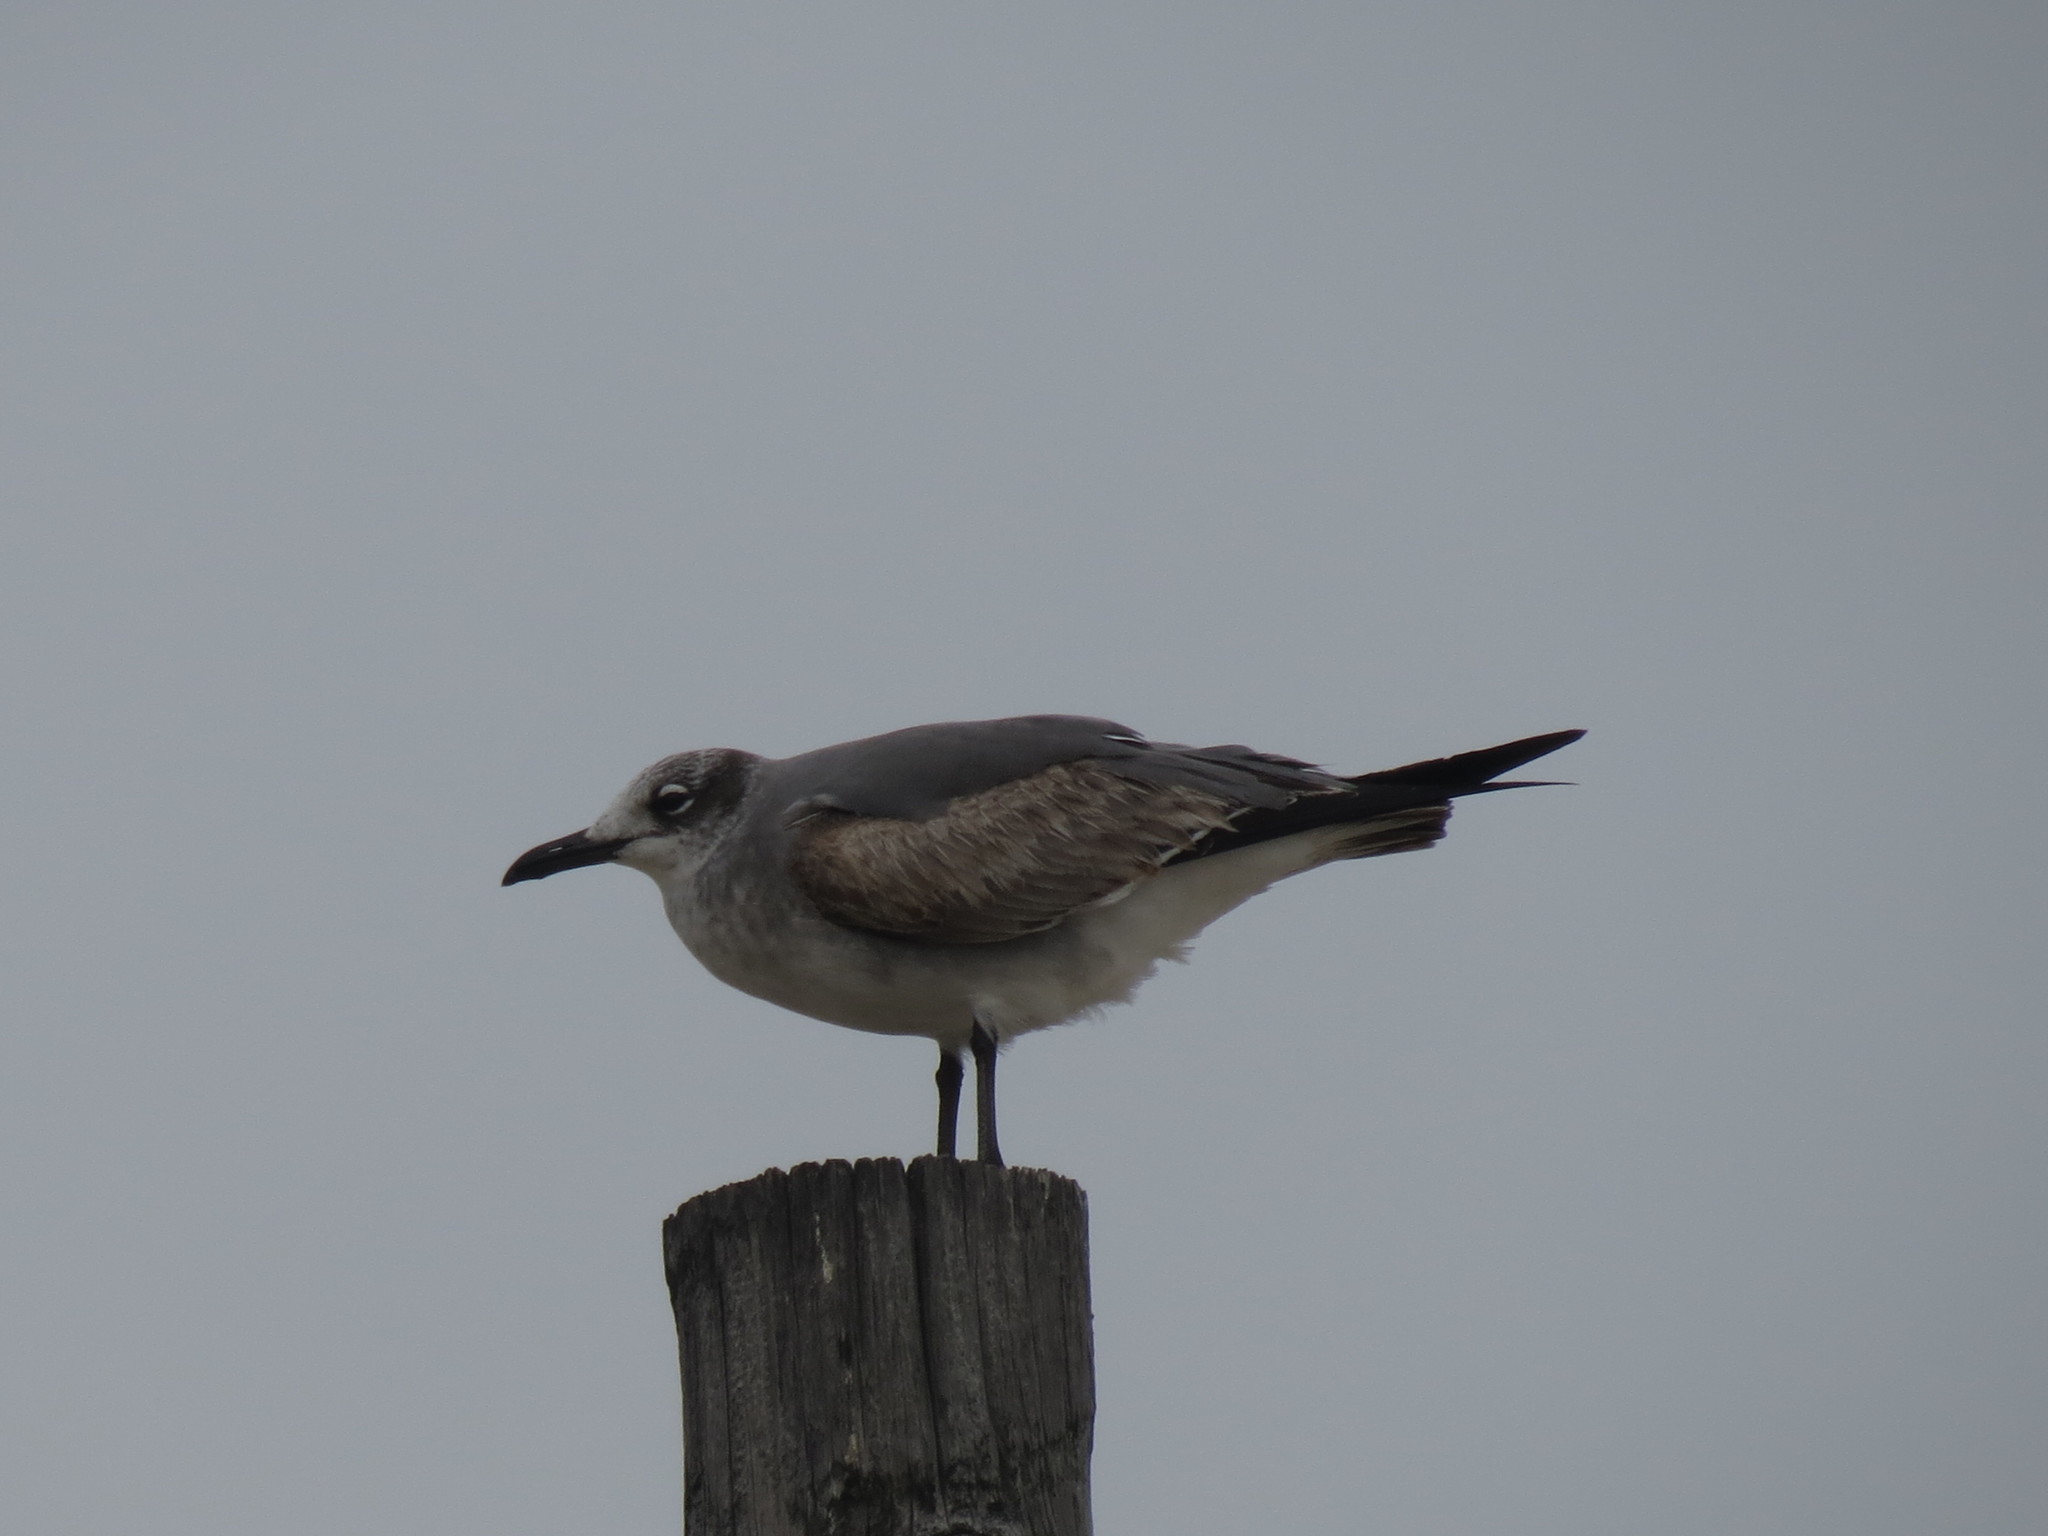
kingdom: Animalia
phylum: Chordata
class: Aves
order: Charadriiformes
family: Laridae
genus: Leucophaeus
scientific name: Leucophaeus atricilla
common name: Laughing gull
